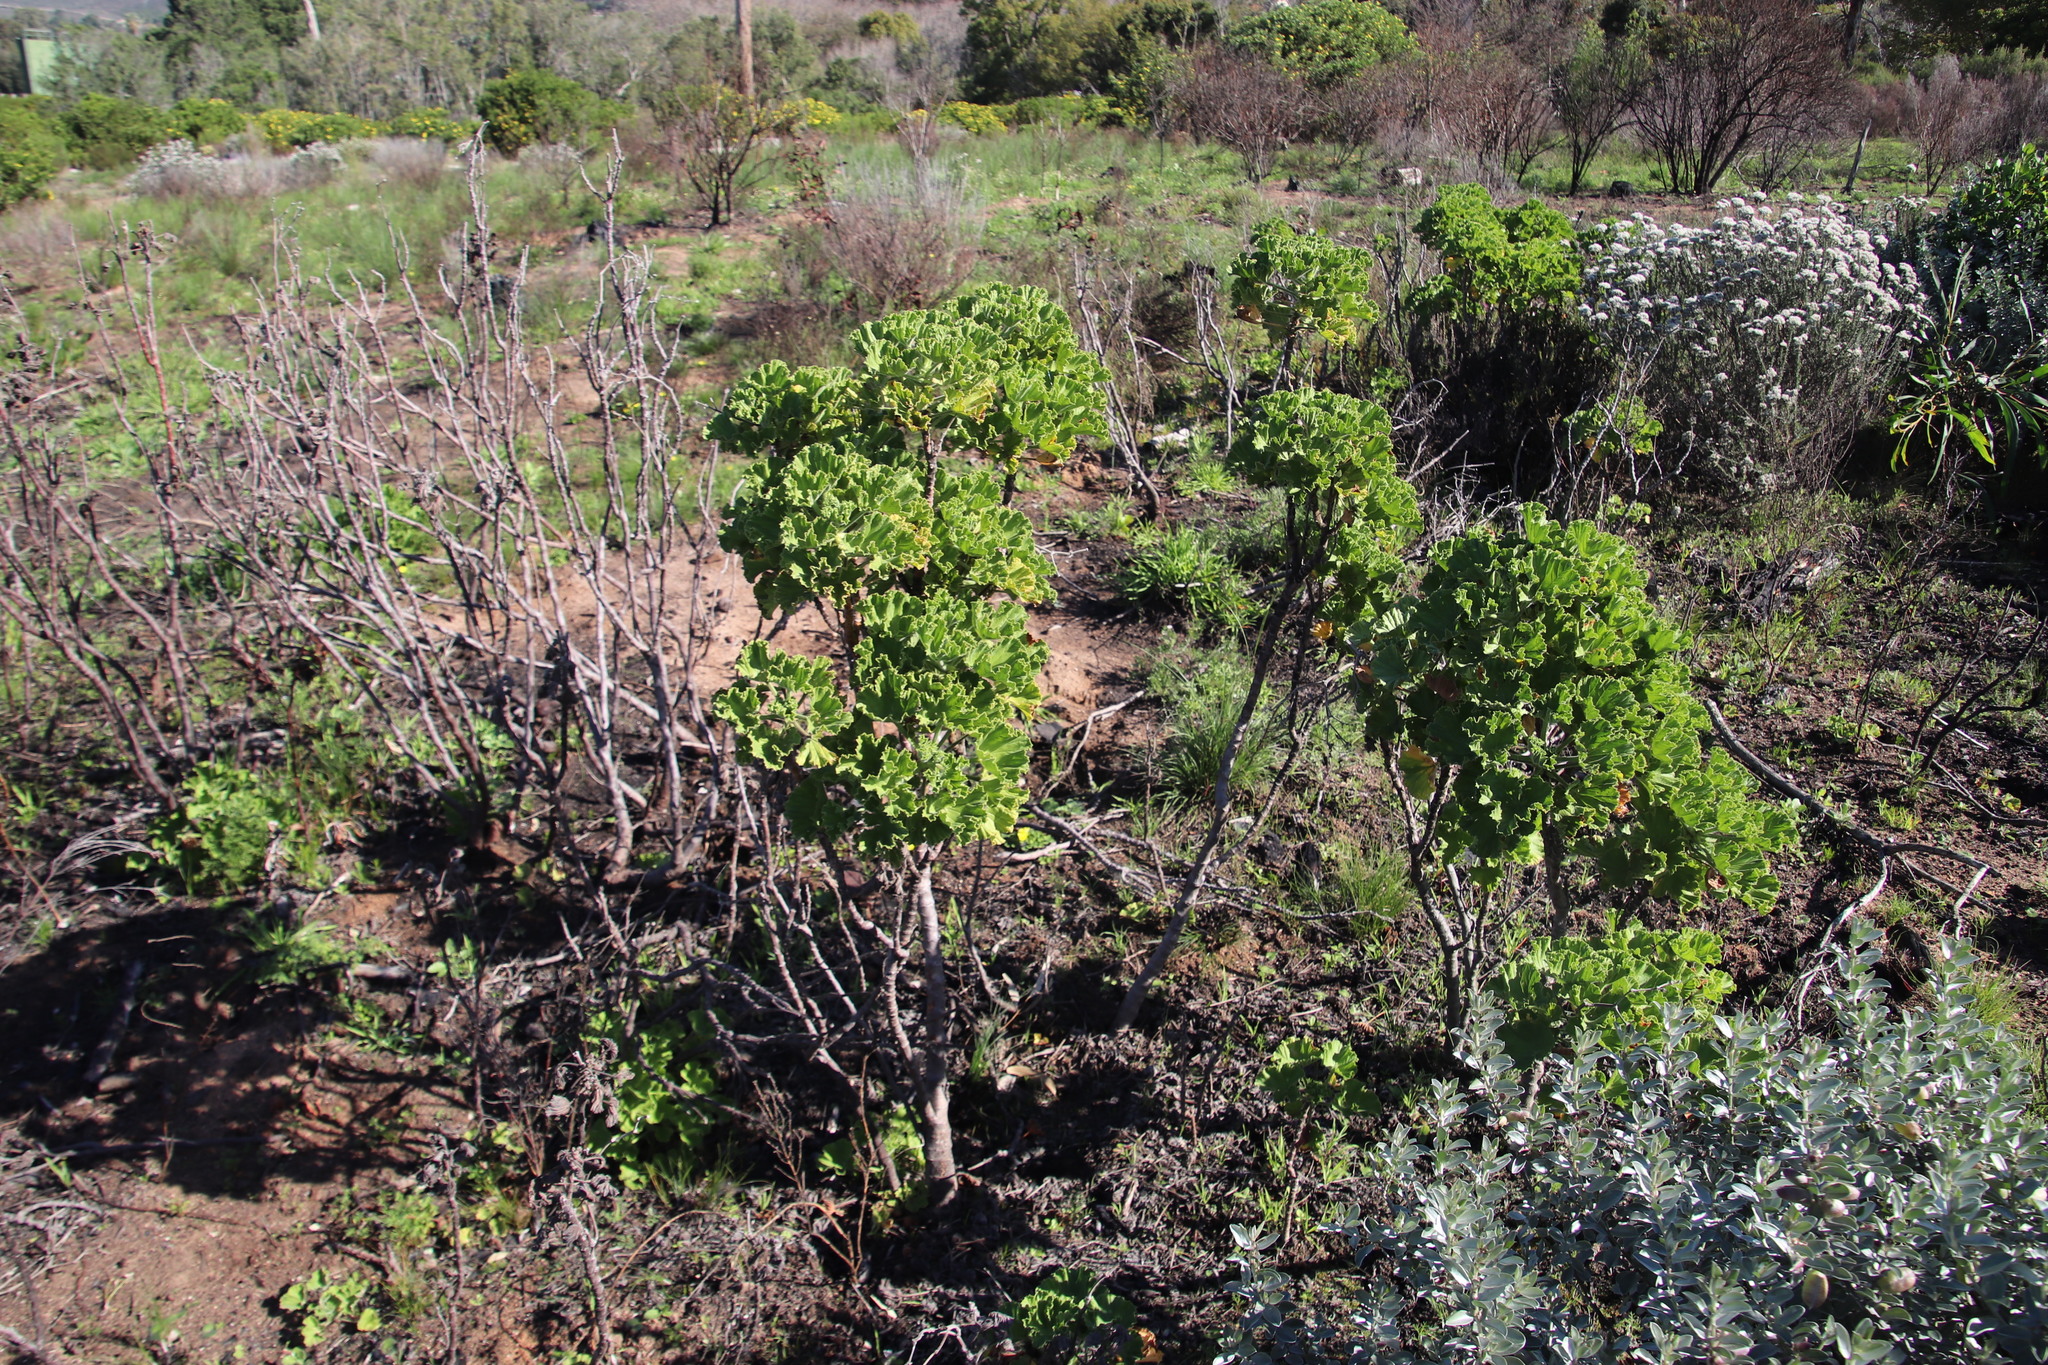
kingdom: Plantae
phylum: Tracheophyta
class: Magnoliopsida
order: Geraniales
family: Geraniaceae
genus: Pelargonium
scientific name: Pelargonium cucullatum
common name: Tree pelargonium
